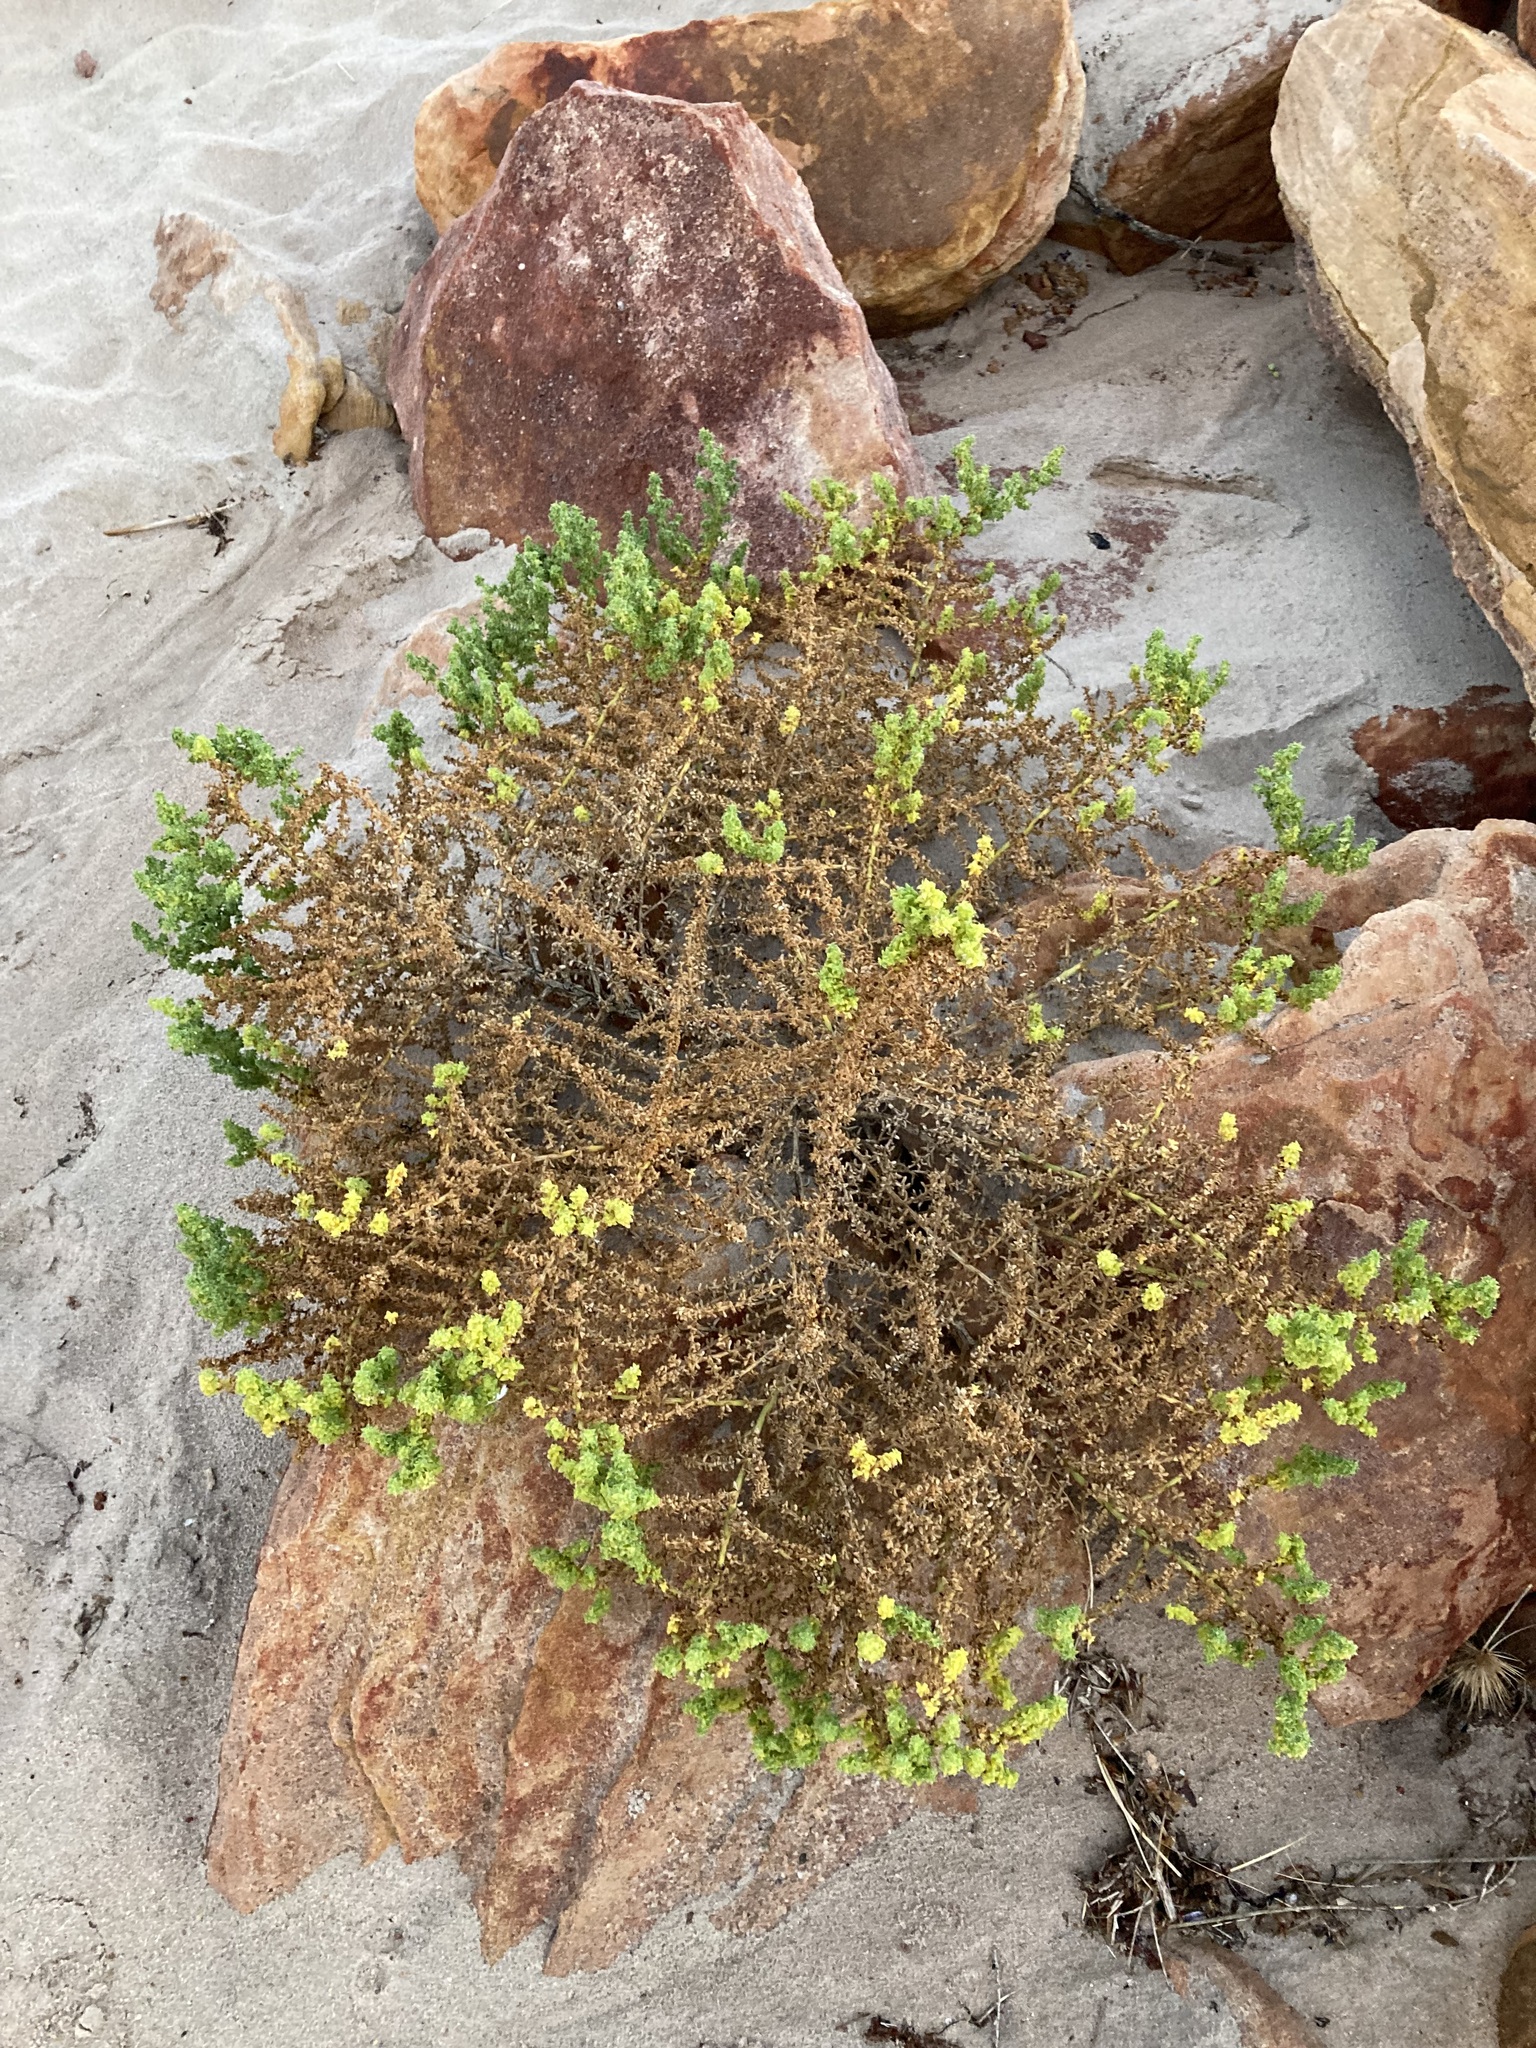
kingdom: Plantae
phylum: Tracheophyta
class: Magnoliopsida
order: Caryophyllales
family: Amaranthaceae
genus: Salsola
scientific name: Salsola australis
